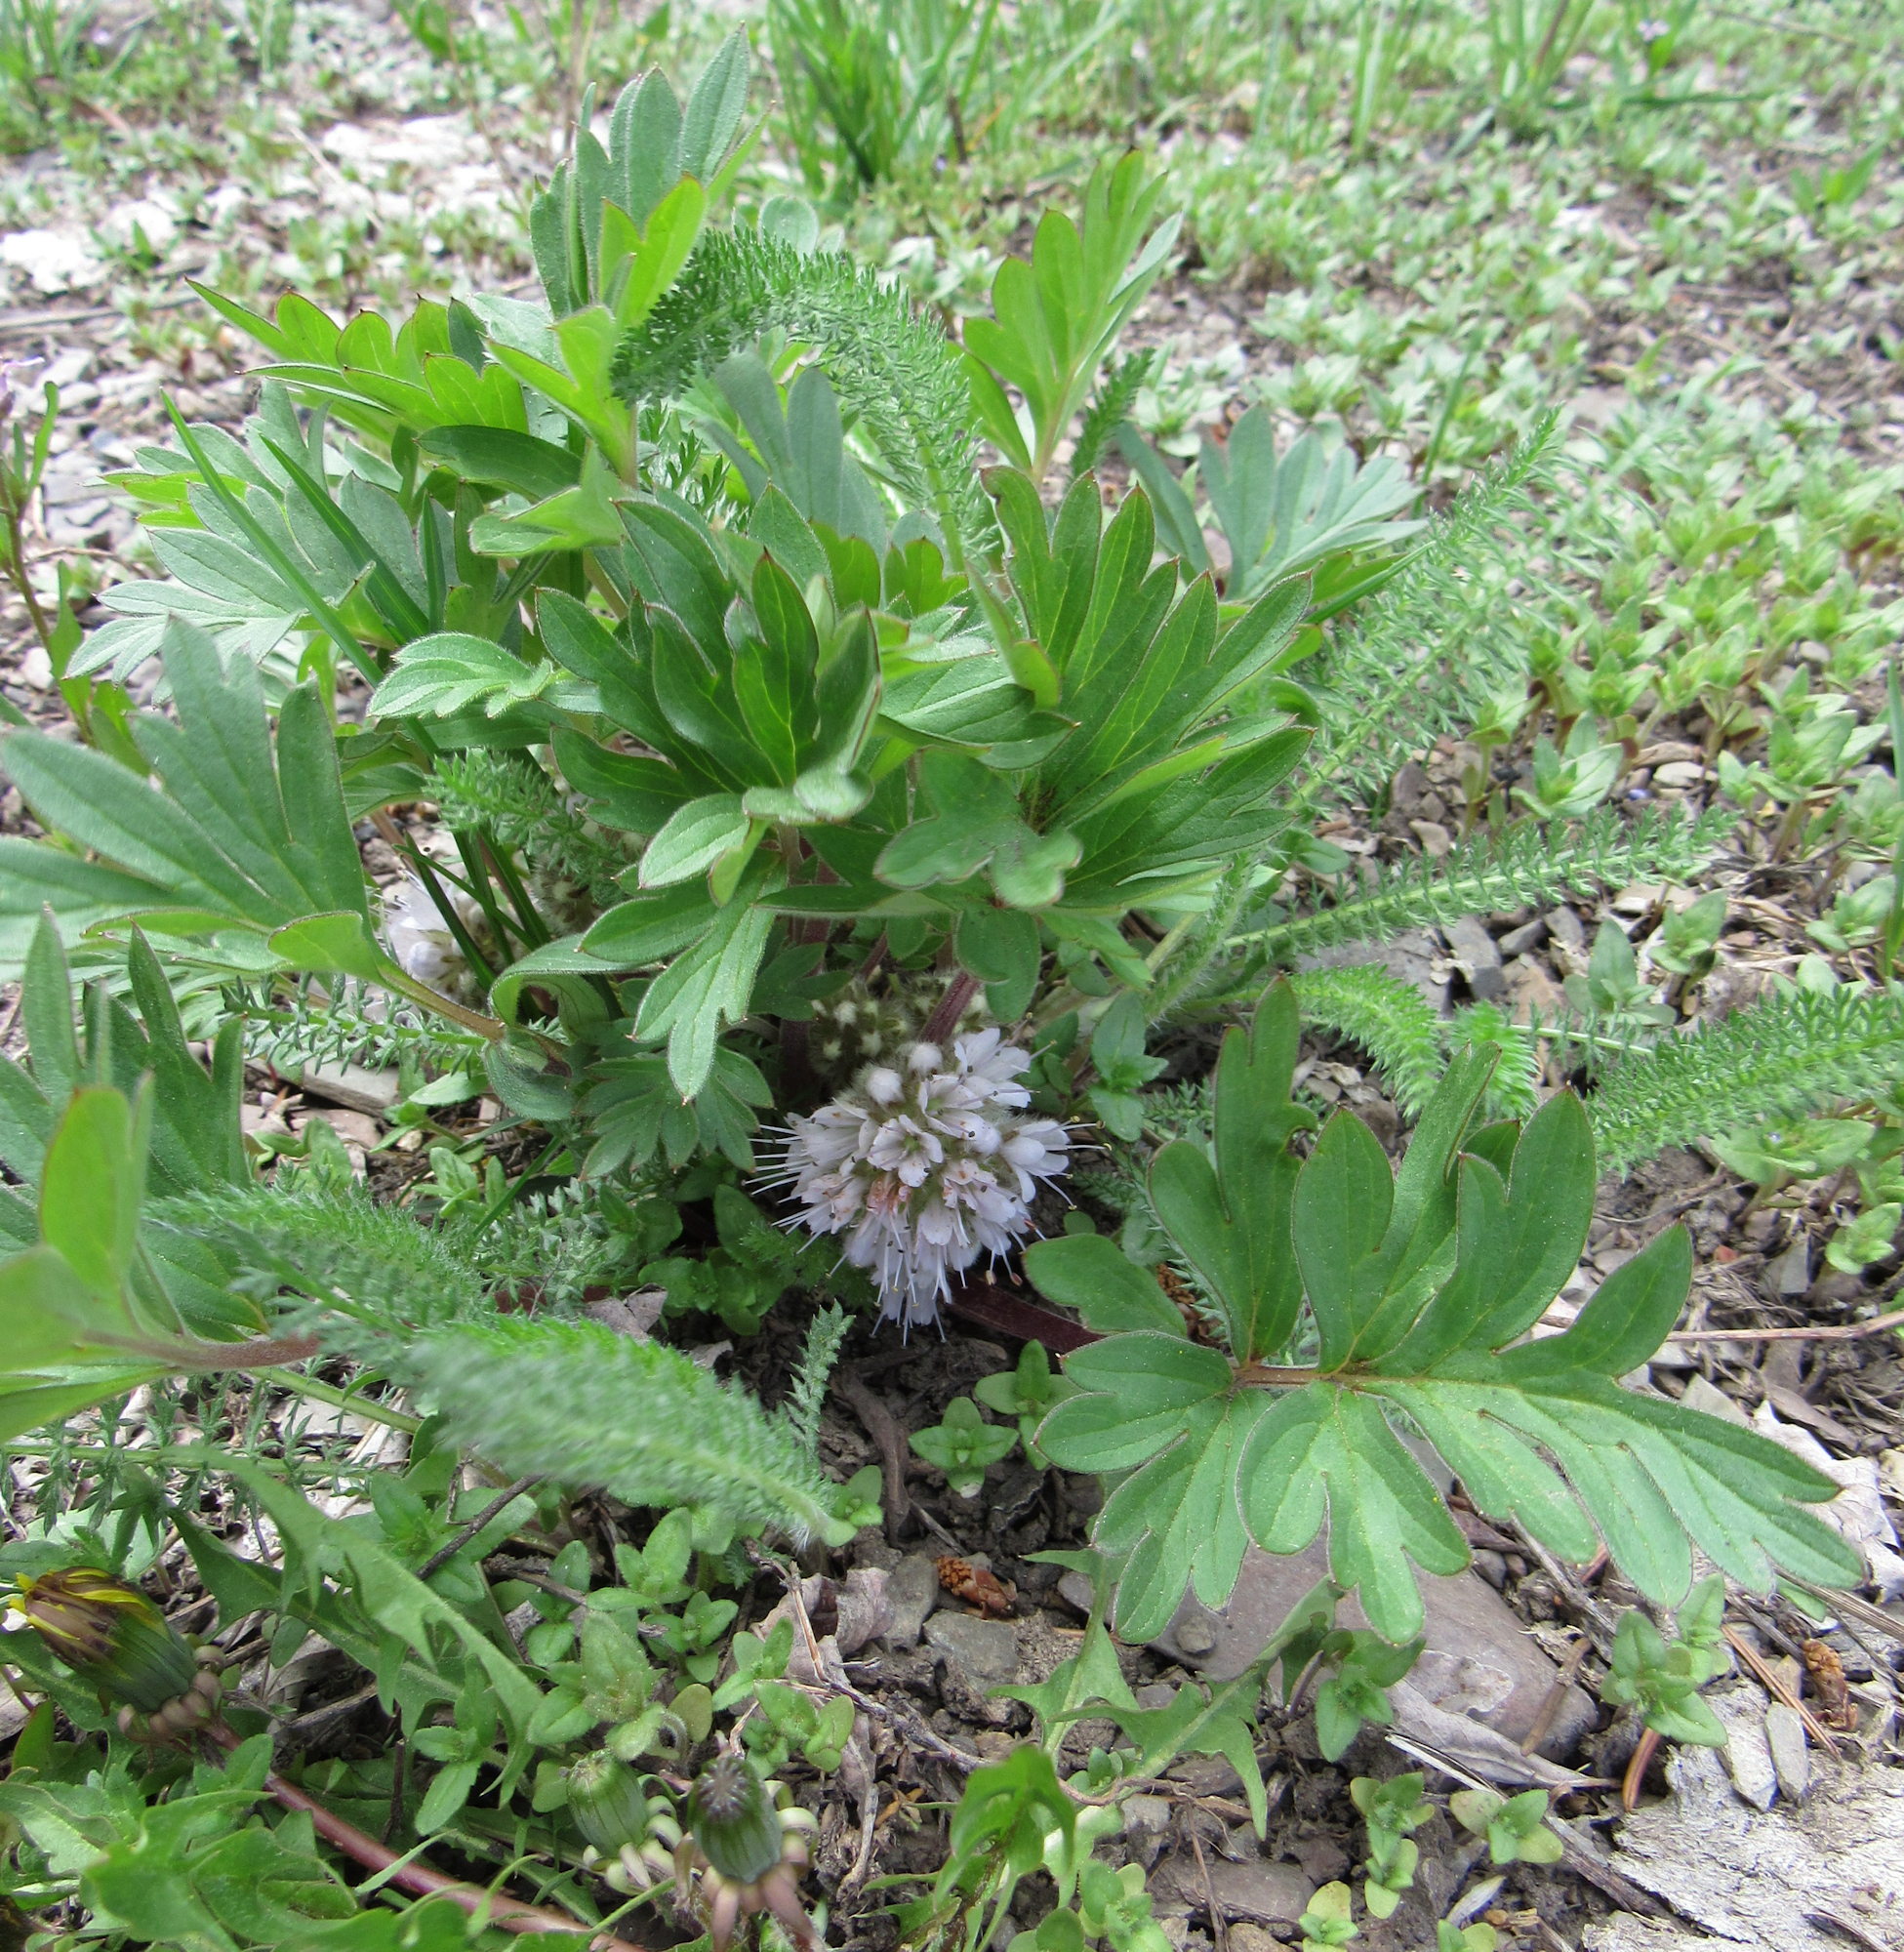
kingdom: Plantae
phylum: Tracheophyta
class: Magnoliopsida
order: Boraginales
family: Hydrophyllaceae
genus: Hydrophyllum
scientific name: Hydrophyllum capitatum
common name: Woollen-breeches
